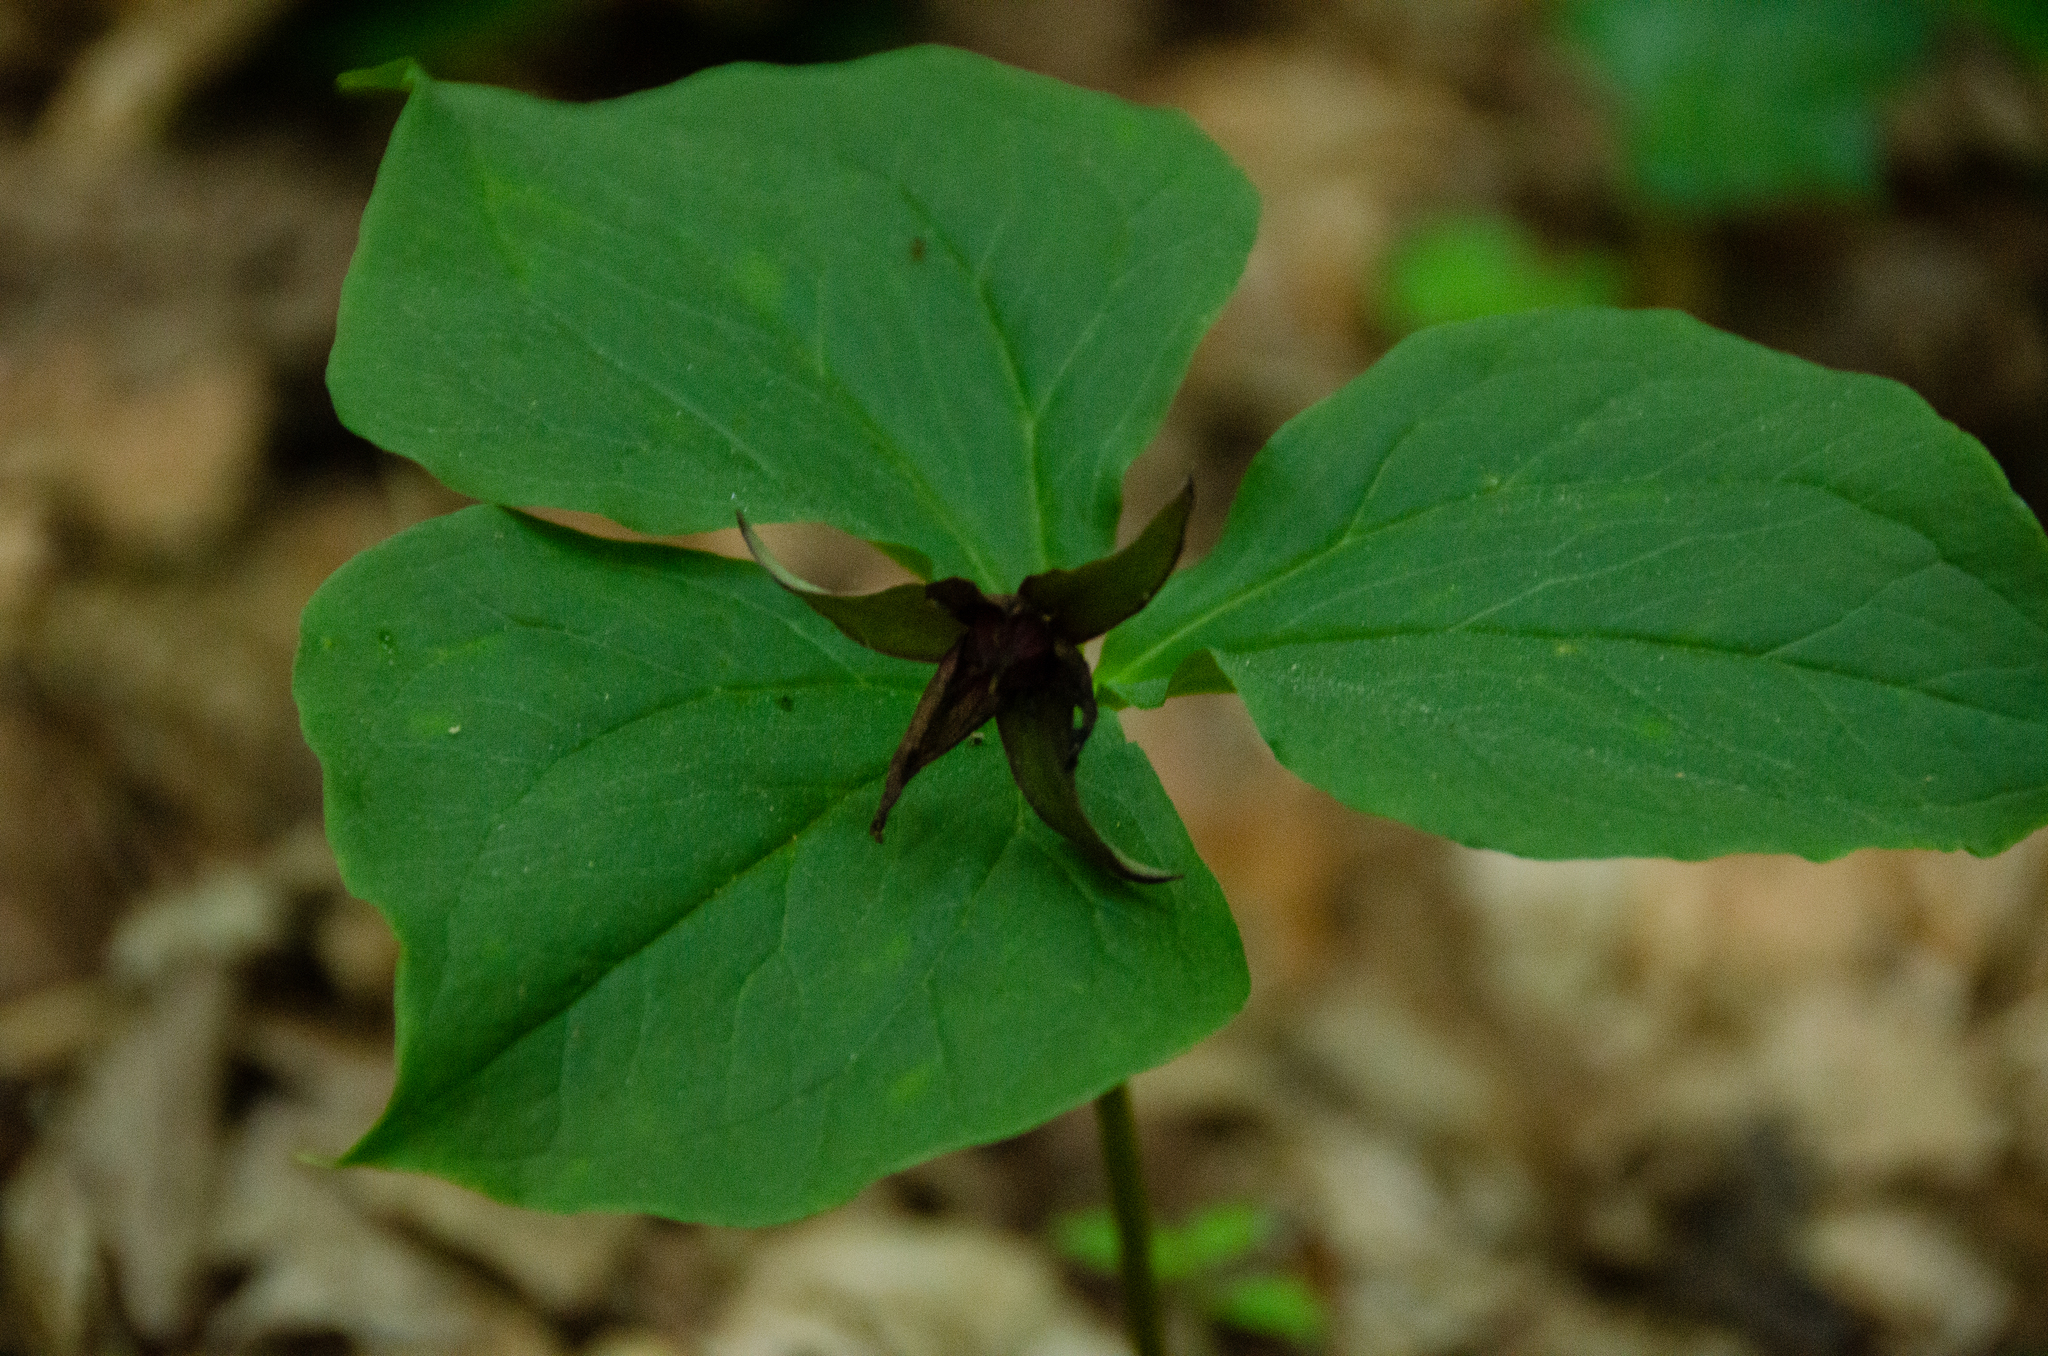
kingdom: Plantae
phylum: Tracheophyta
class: Liliopsida
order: Liliales
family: Melanthiaceae
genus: Trillium
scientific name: Trillium erectum
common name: Purple trillium
